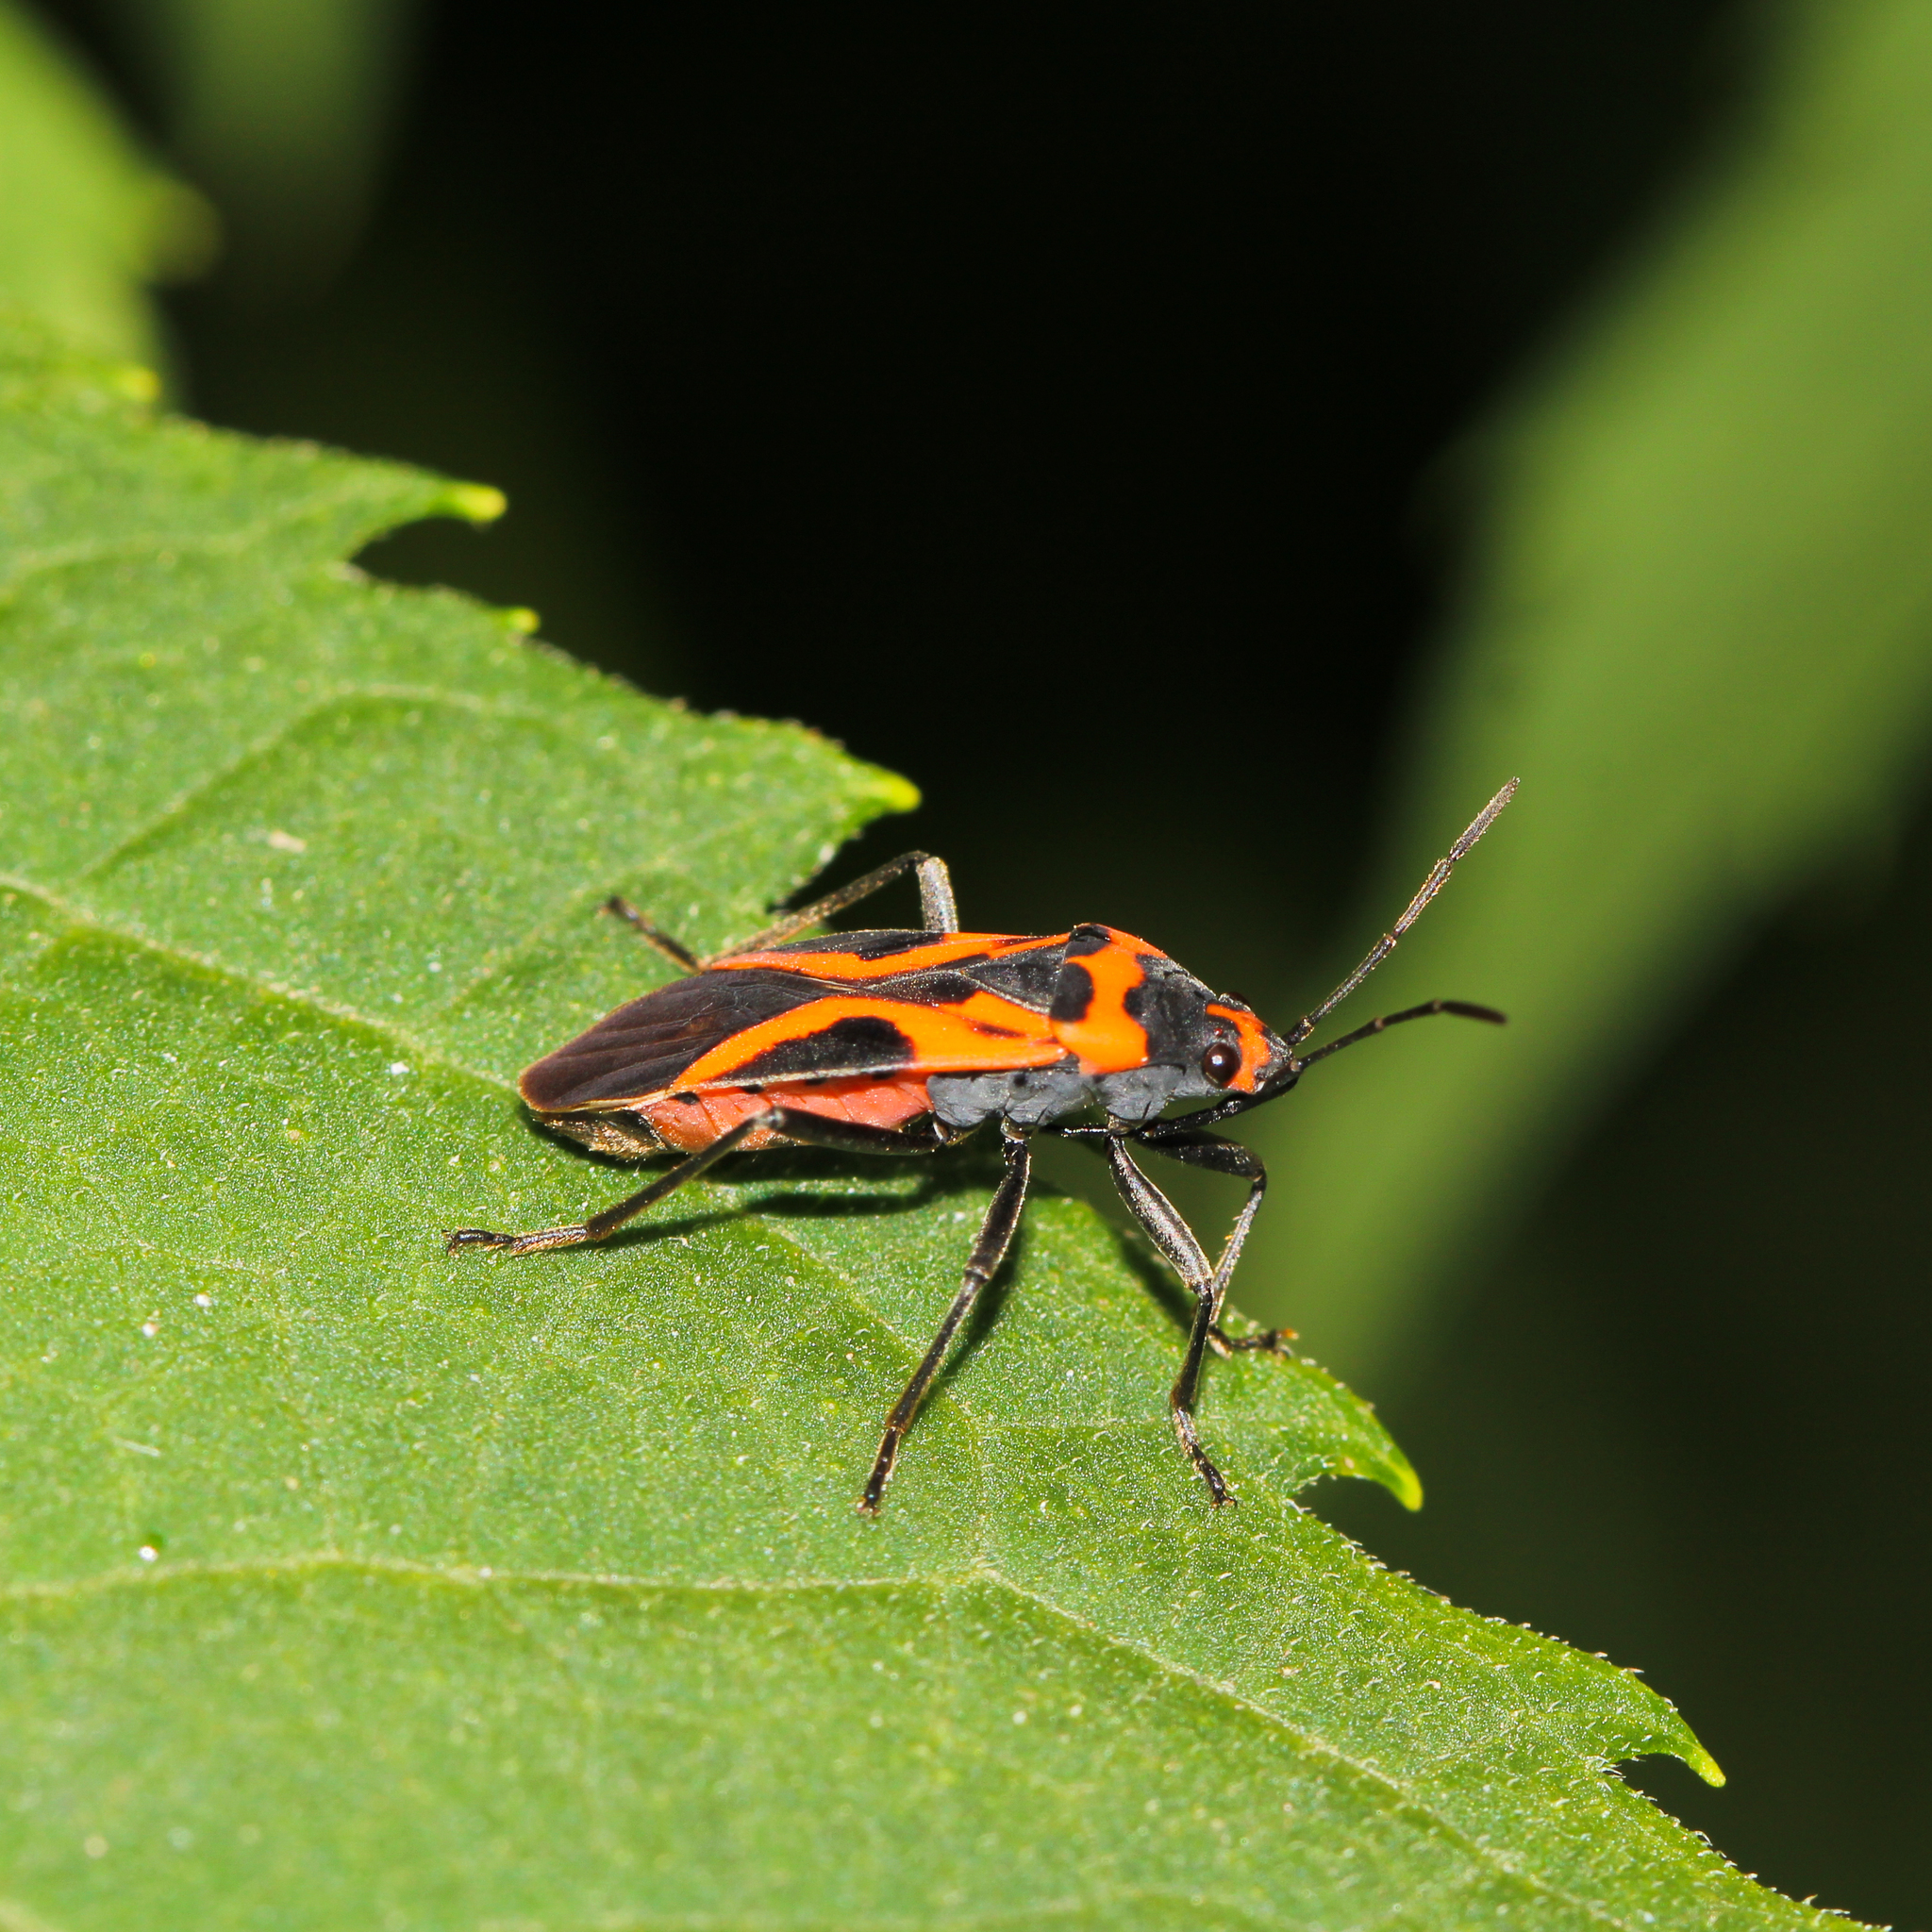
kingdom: Animalia
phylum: Arthropoda
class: Insecta
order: Hemiptera
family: Lygaeidae
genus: Lygaeus
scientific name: Lygaeus turcicus
